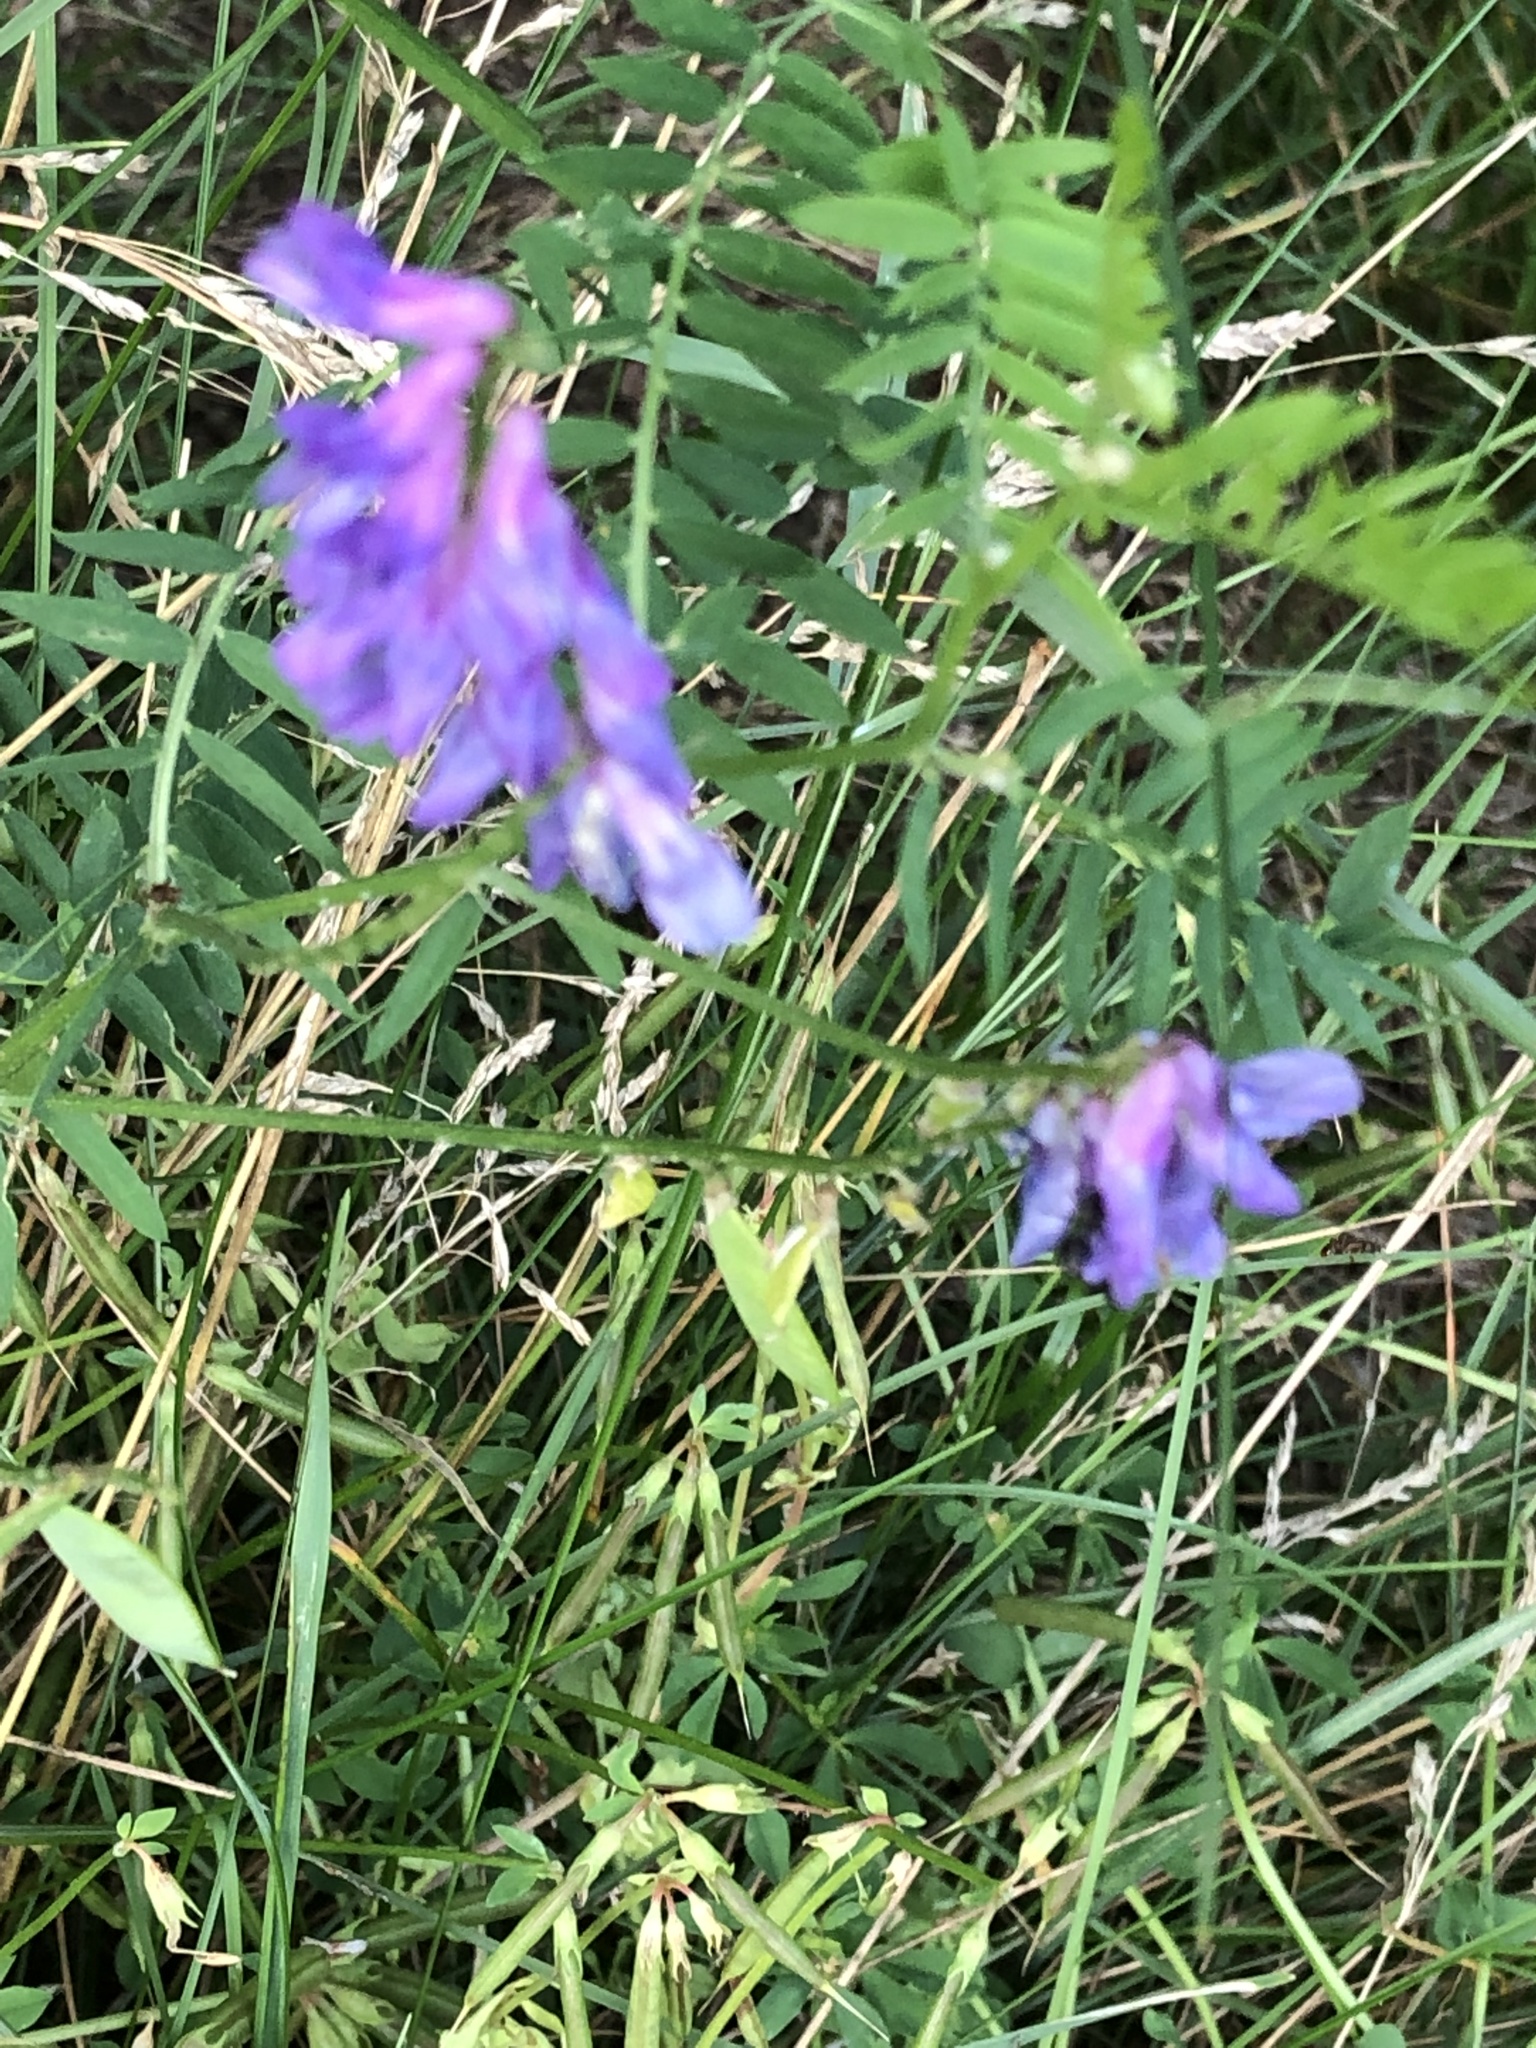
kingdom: Plantae
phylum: Tracheophyta
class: Magnoliopsida
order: Fabales
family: Fabaceae
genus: Vicia
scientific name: Vicia cracca
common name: Bird vetch
